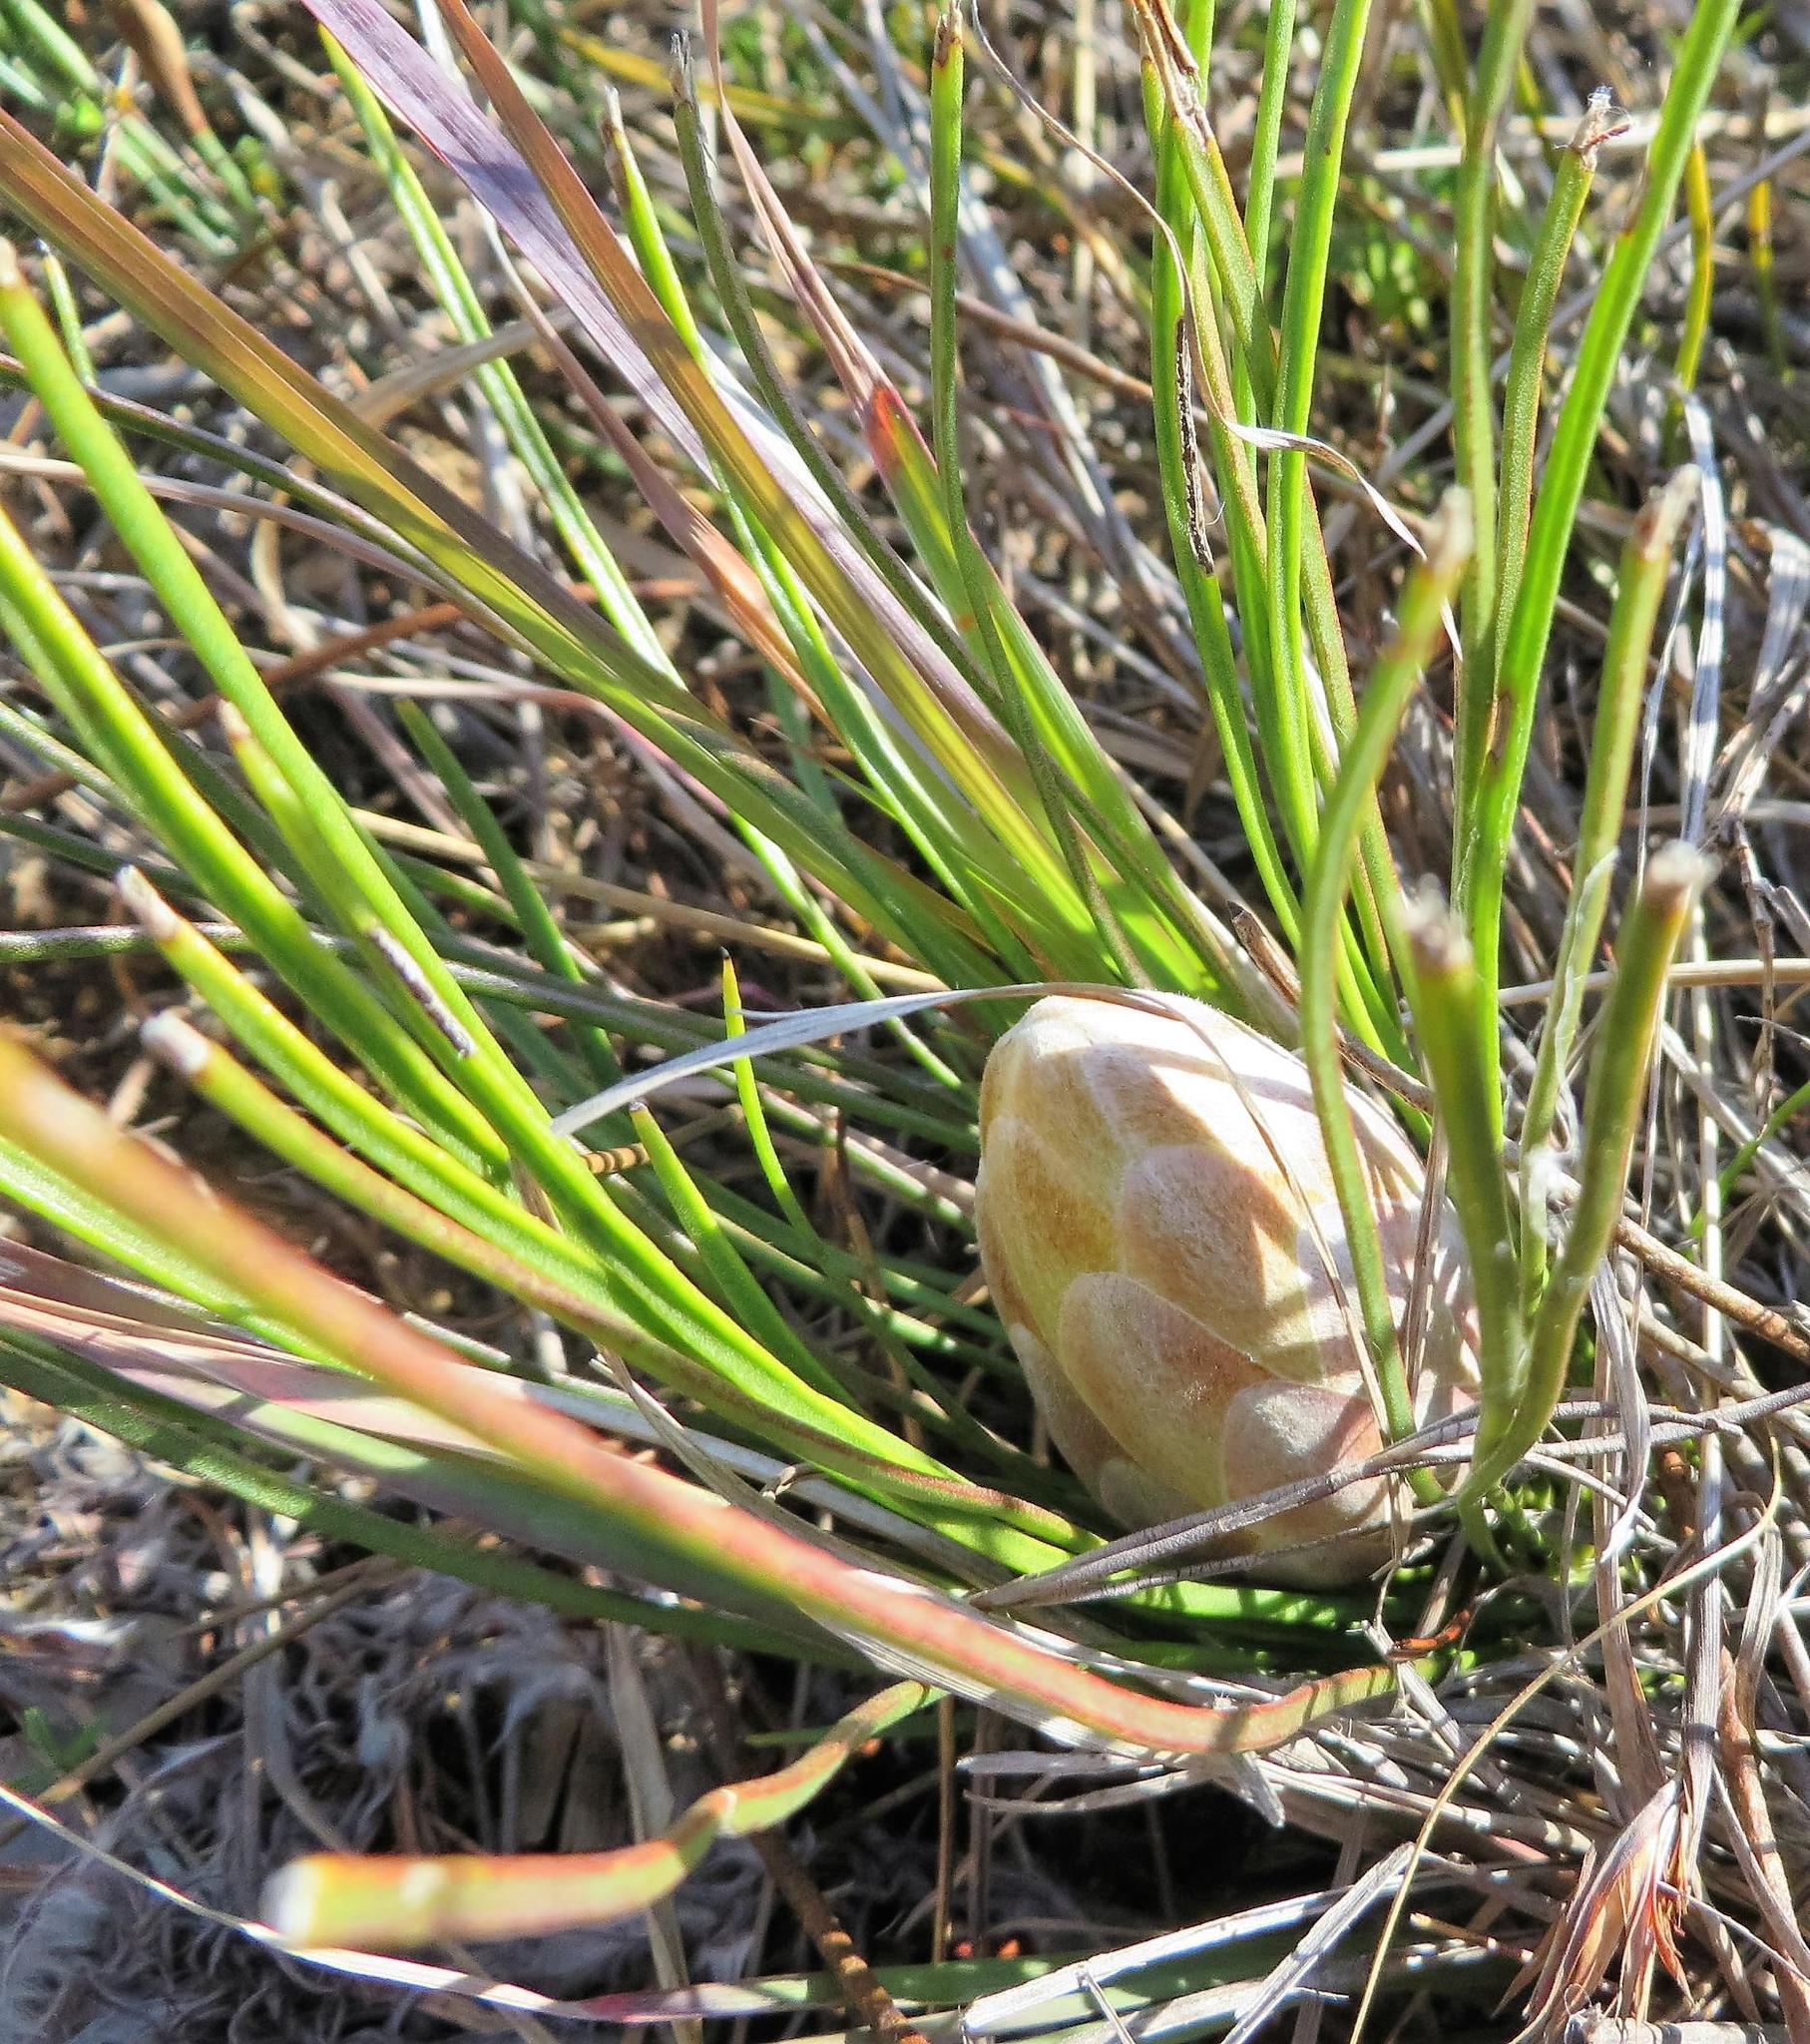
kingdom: Plantae
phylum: Tracheophyta
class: Magnoliopsida
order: Proteales
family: Proteaceae
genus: Protea
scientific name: Protea scorzonerifolia
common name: Channel-leaf sugarbush
